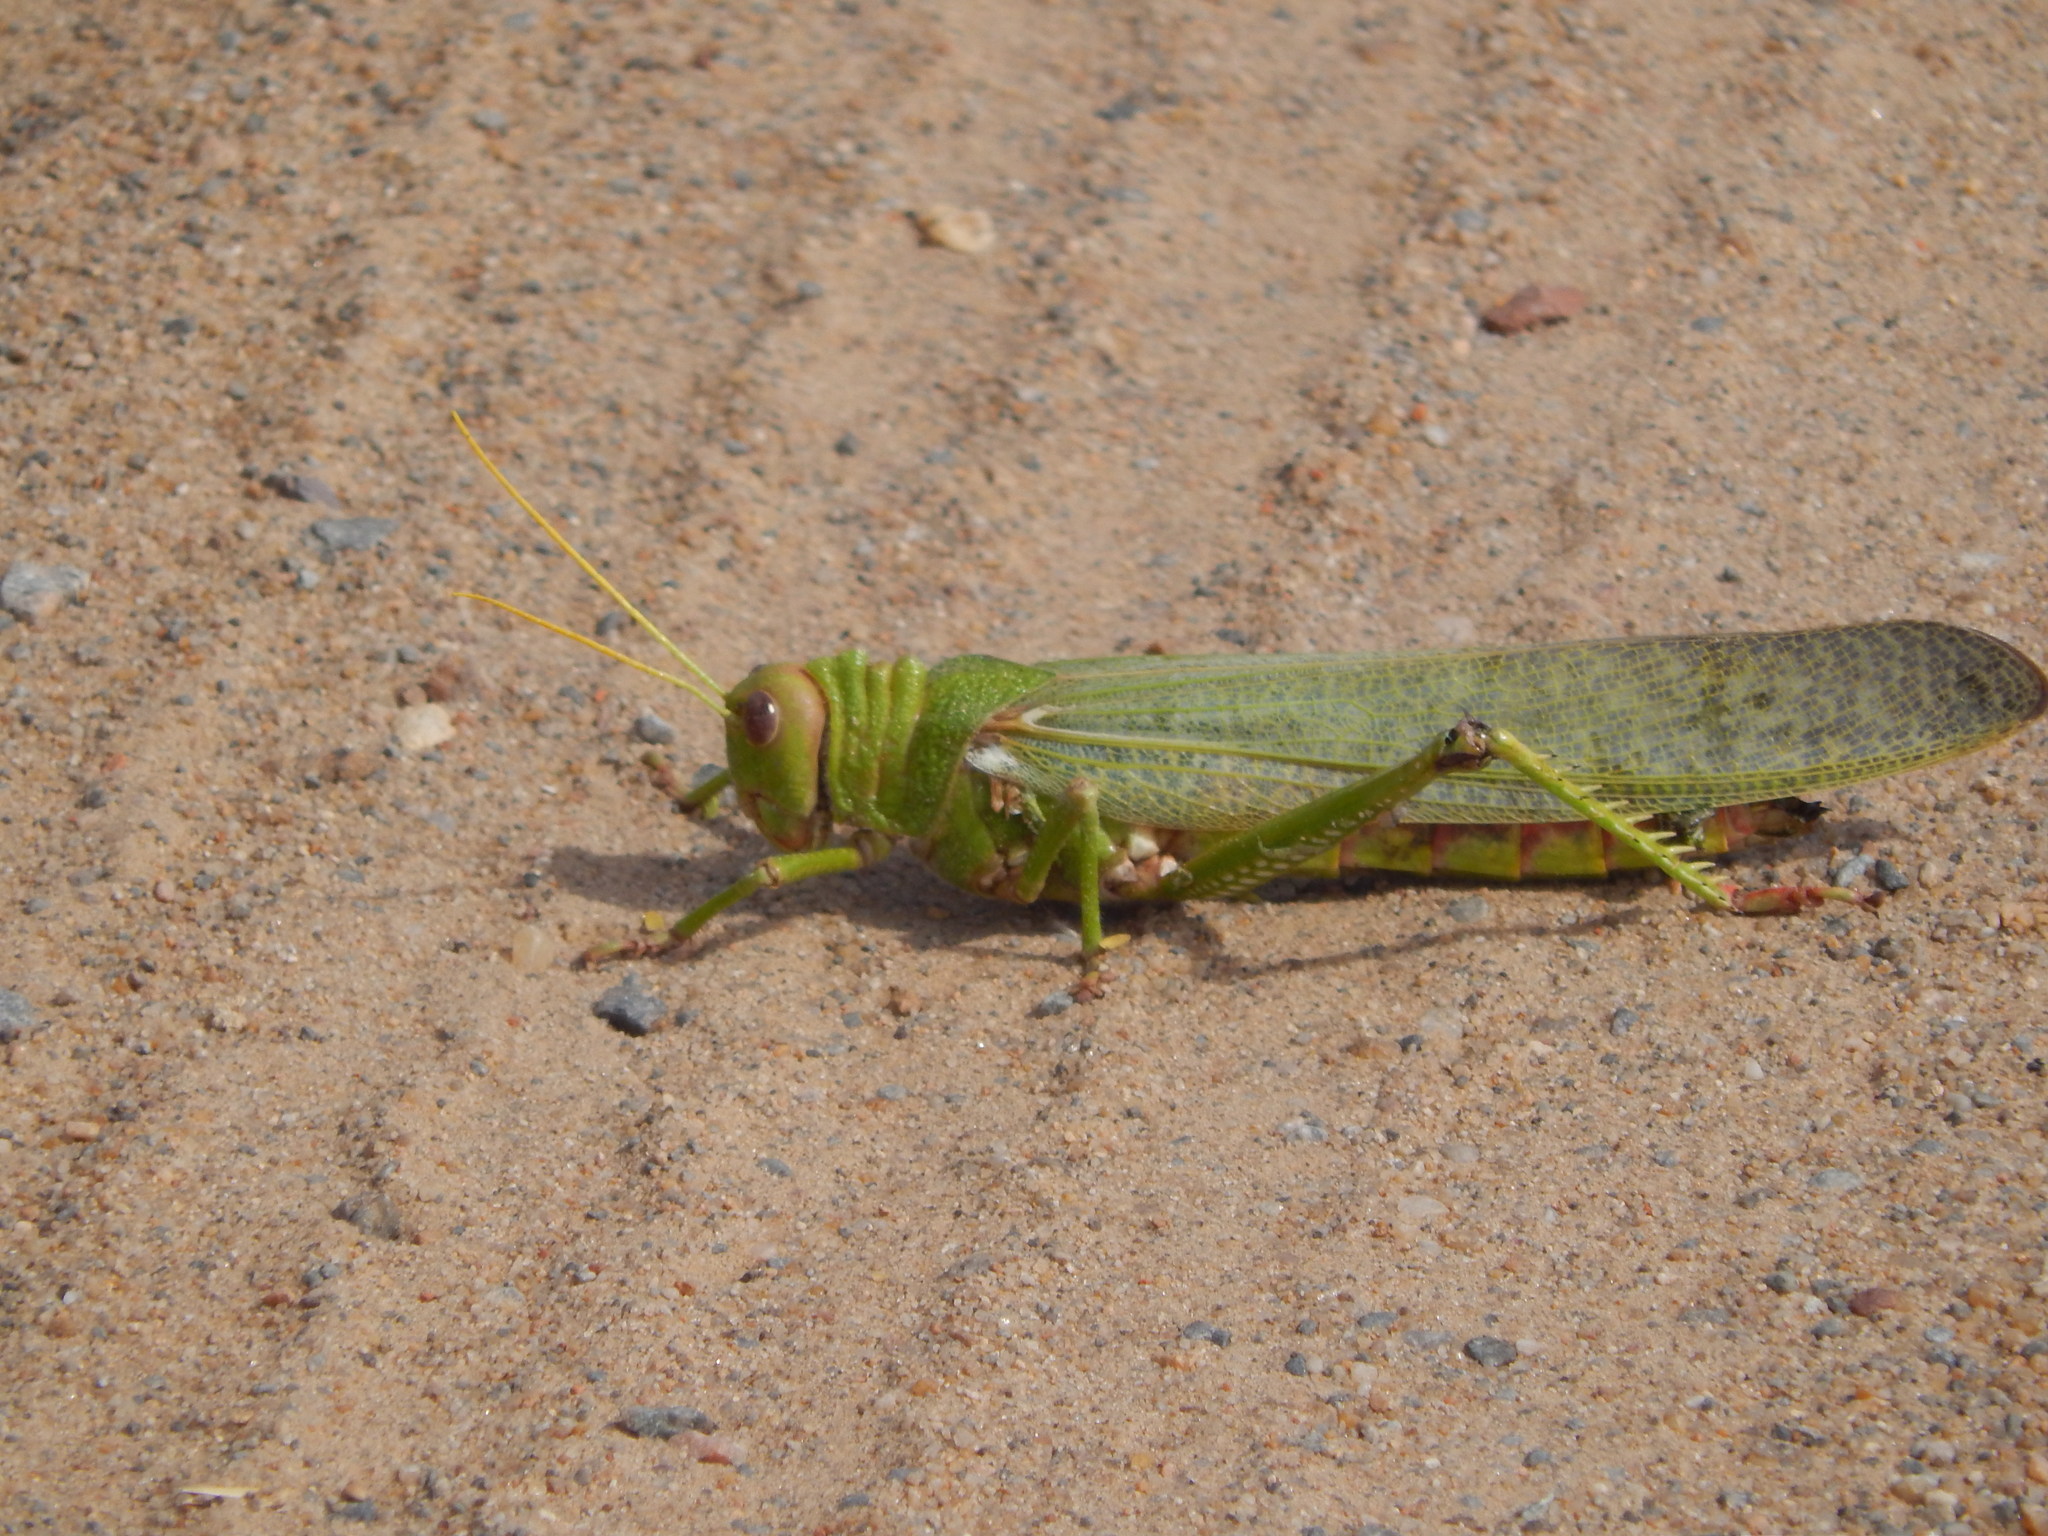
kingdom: Animalia
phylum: Arthropoda
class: Insecta
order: Orthoptera
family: Romaleidae
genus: Tropidacris
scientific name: Tropidacris collaris
